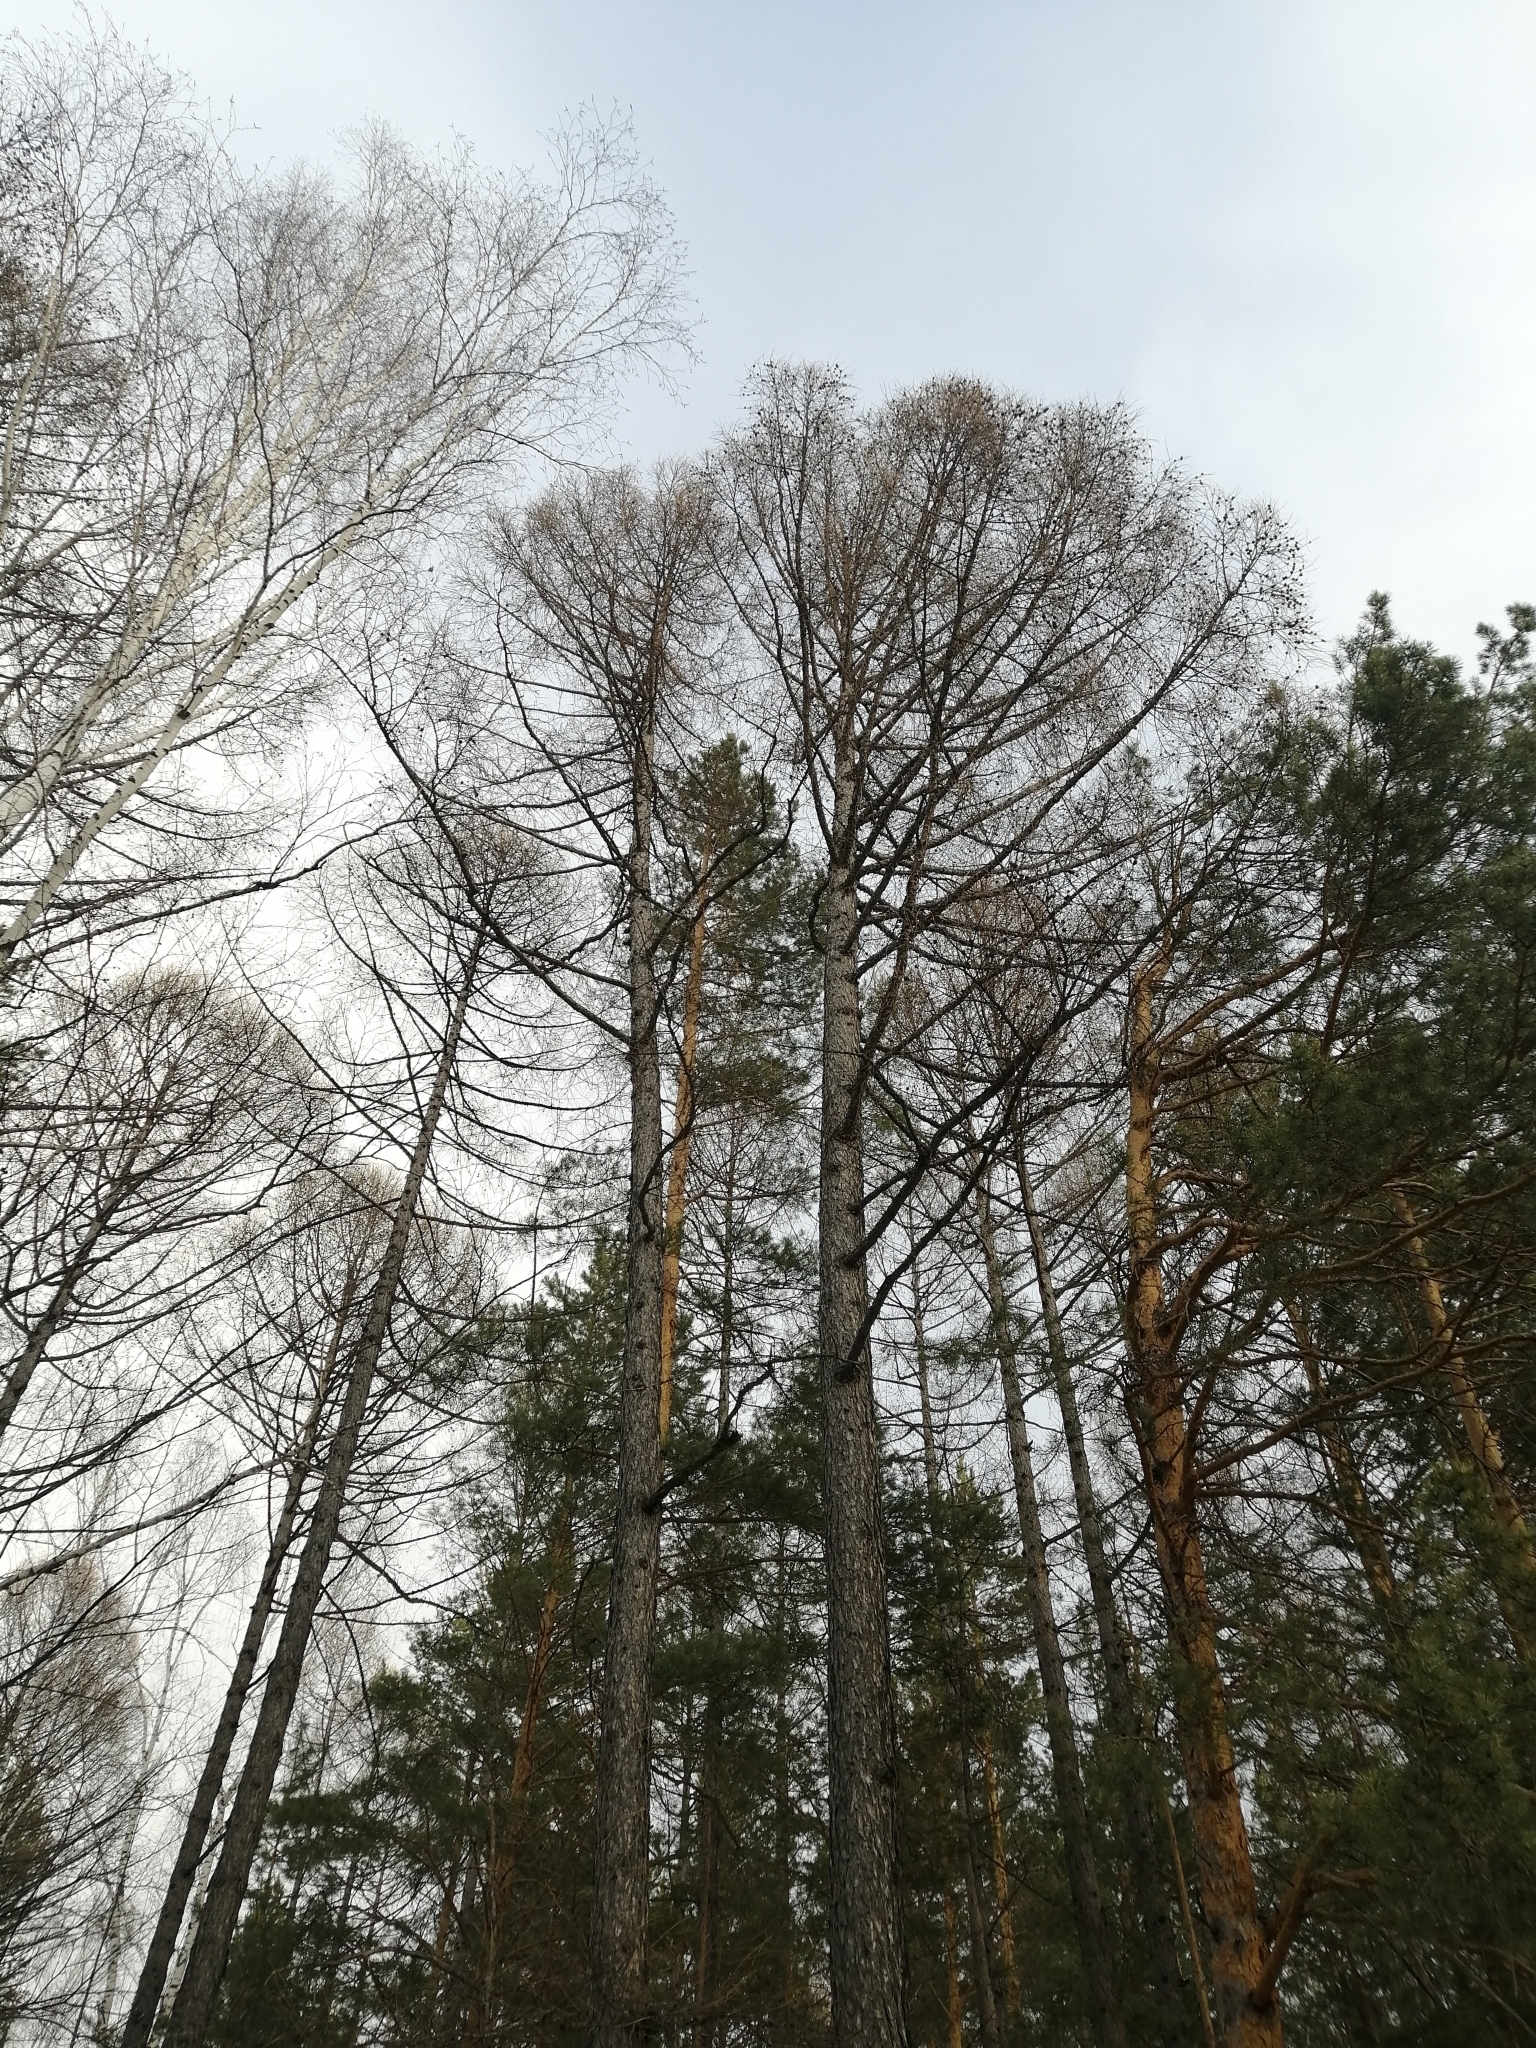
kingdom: Plantae
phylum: Tracheophyta
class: Pinopsida
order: Pinales
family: Pinaceae
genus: Larix
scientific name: Larix sibirica
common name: Siberian larch
